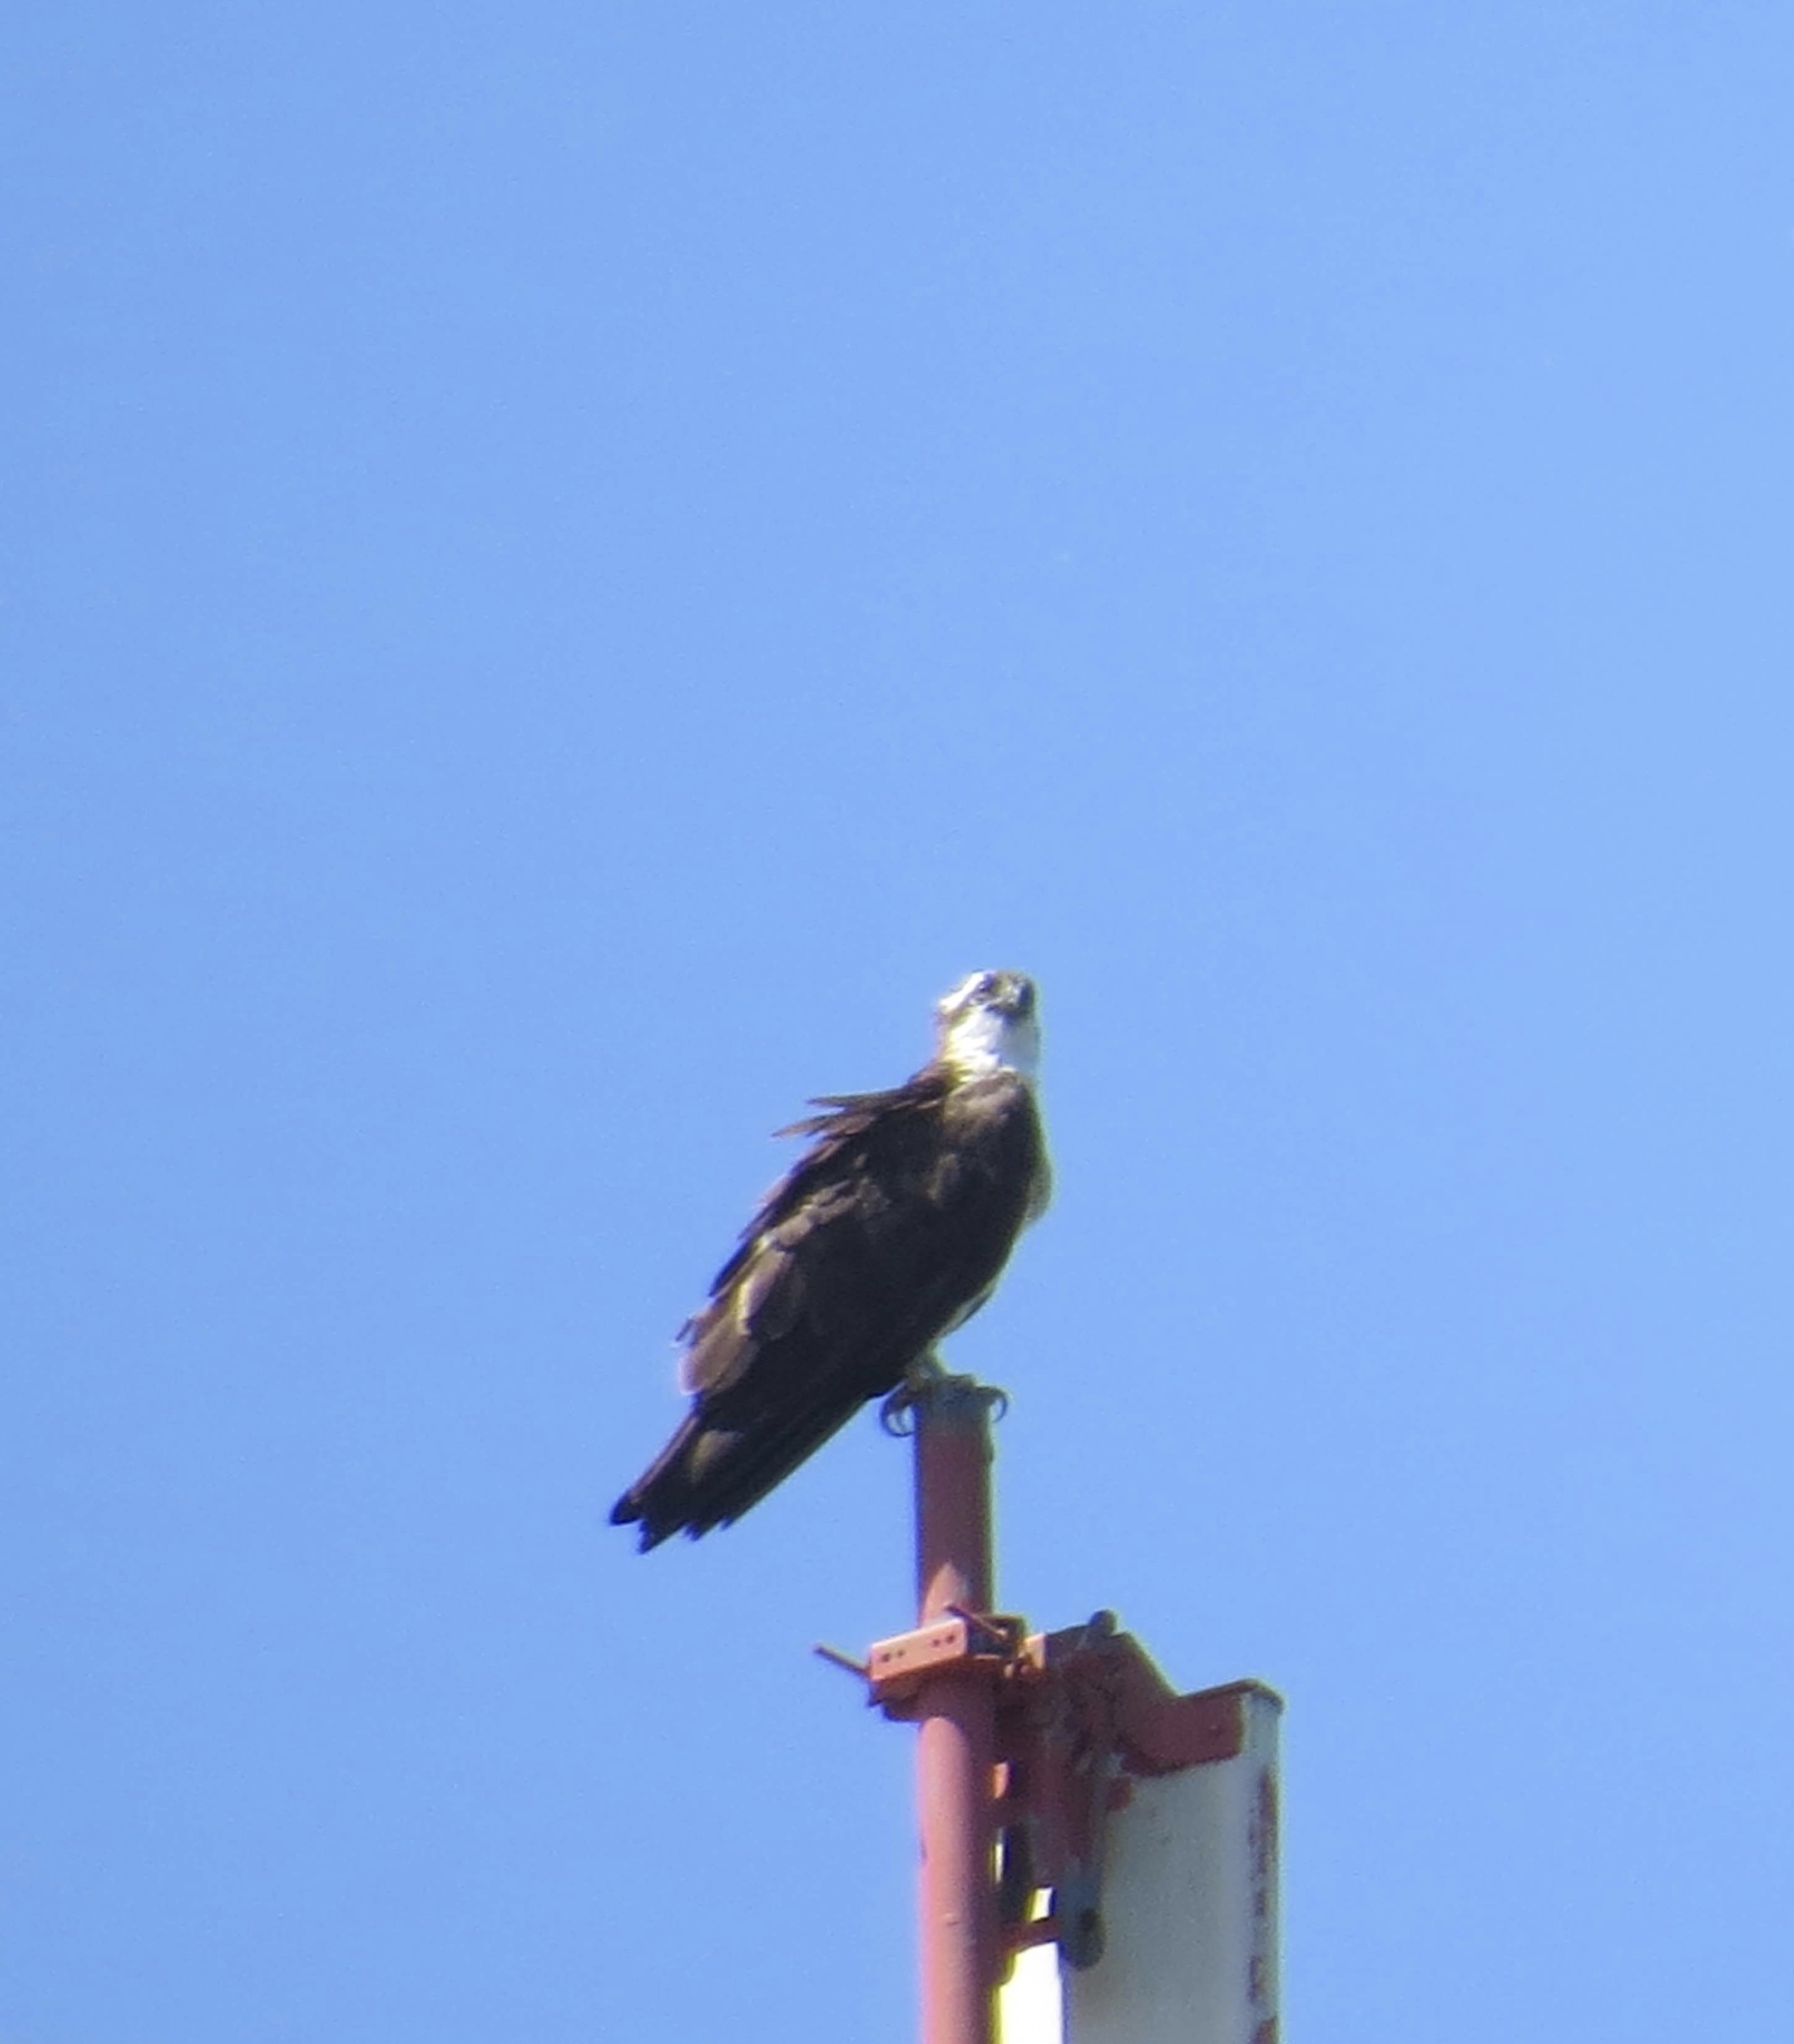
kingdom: Animalia
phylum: Chordata
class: Aves
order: Accipitriformes
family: Pandionidae
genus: Pandion
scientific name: Pandion haliaetus
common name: Osprey
